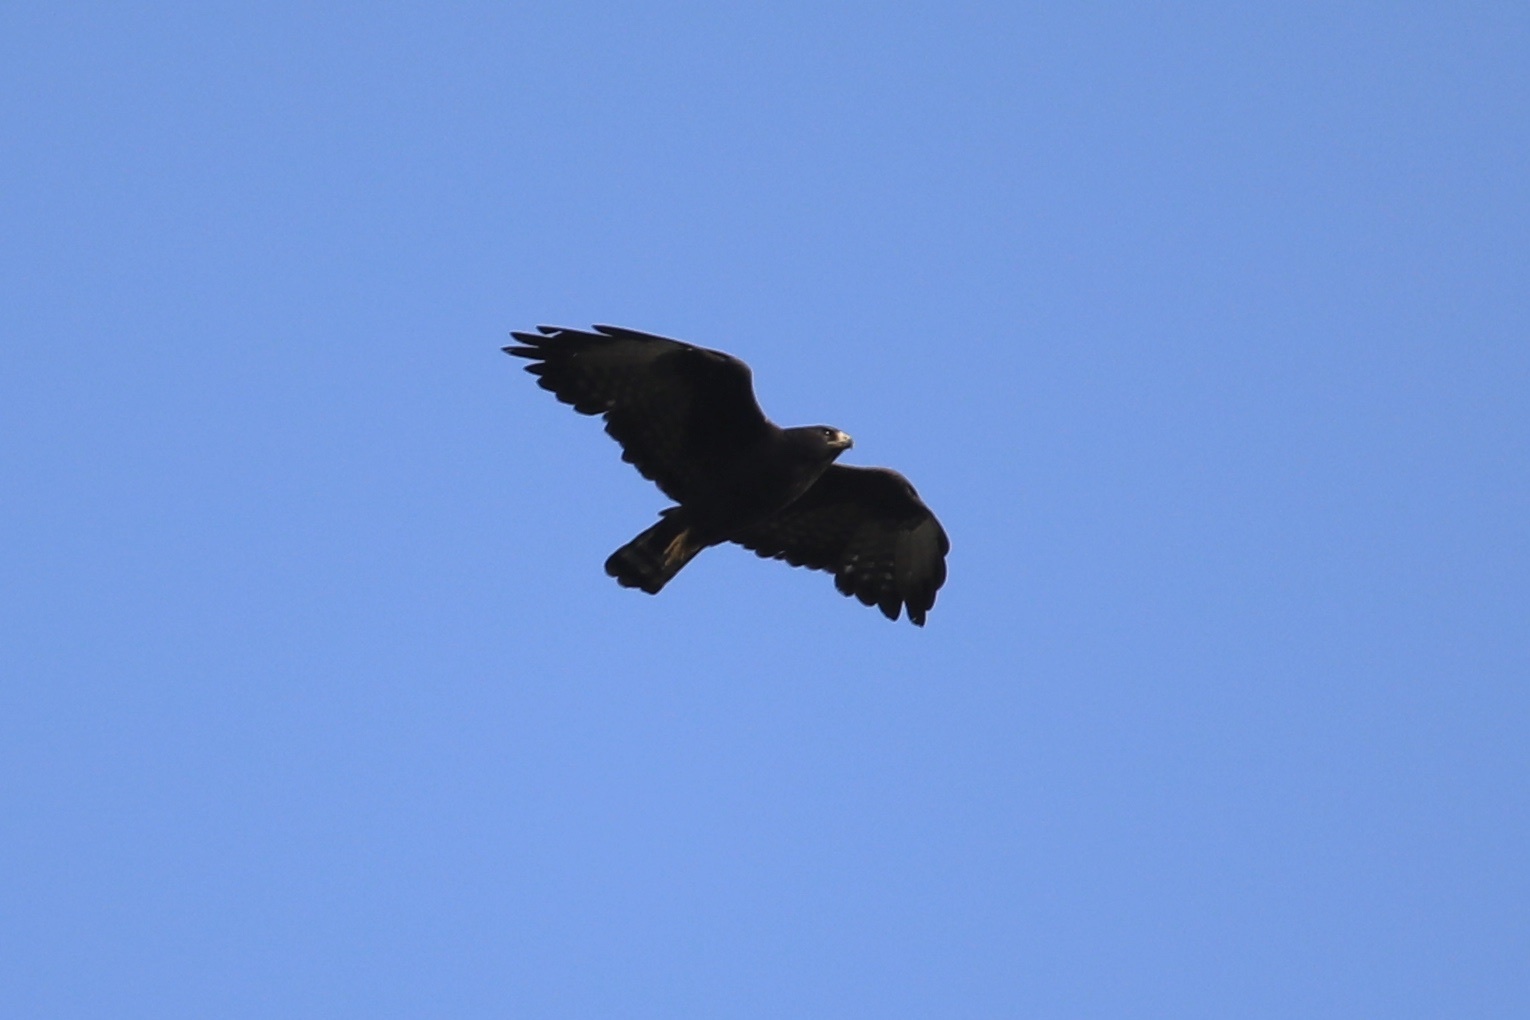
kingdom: Animalia
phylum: Chordata
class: Aves
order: Accipitriformes
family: Accipitridae
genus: Buteo
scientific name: Buteo albonotatus
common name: Zone-tailed hawk
